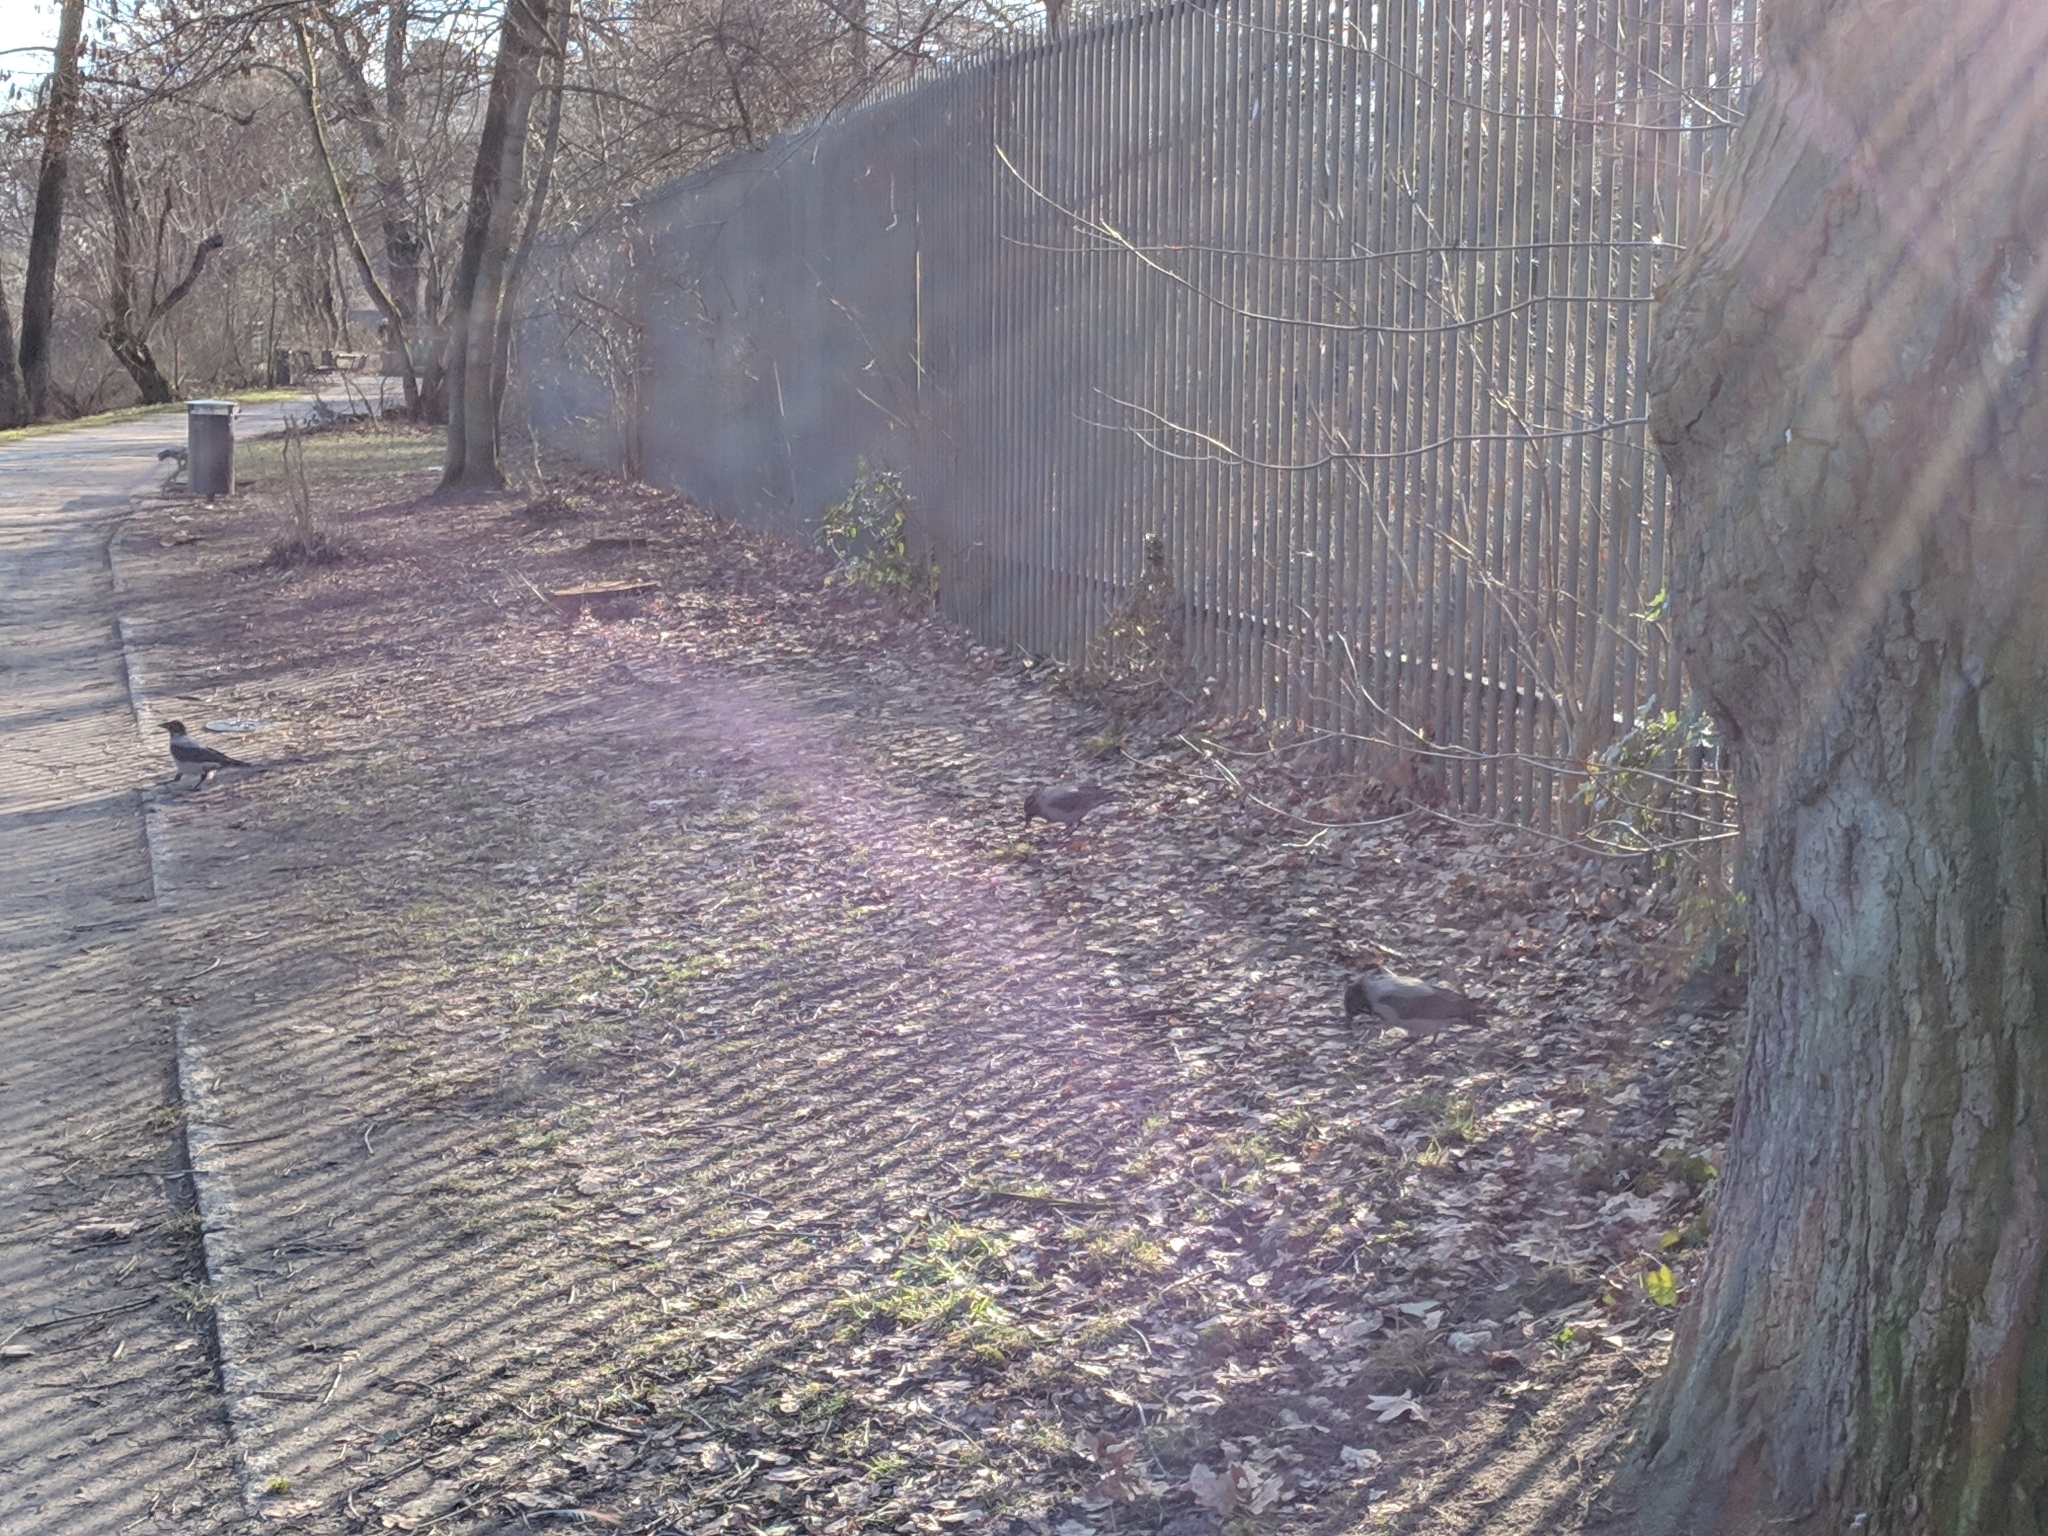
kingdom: Animalia
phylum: Chordata
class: Aves
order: Passeriformes
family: Corvidae
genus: Corvus
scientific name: Corvus cornix
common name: Hooded crow
